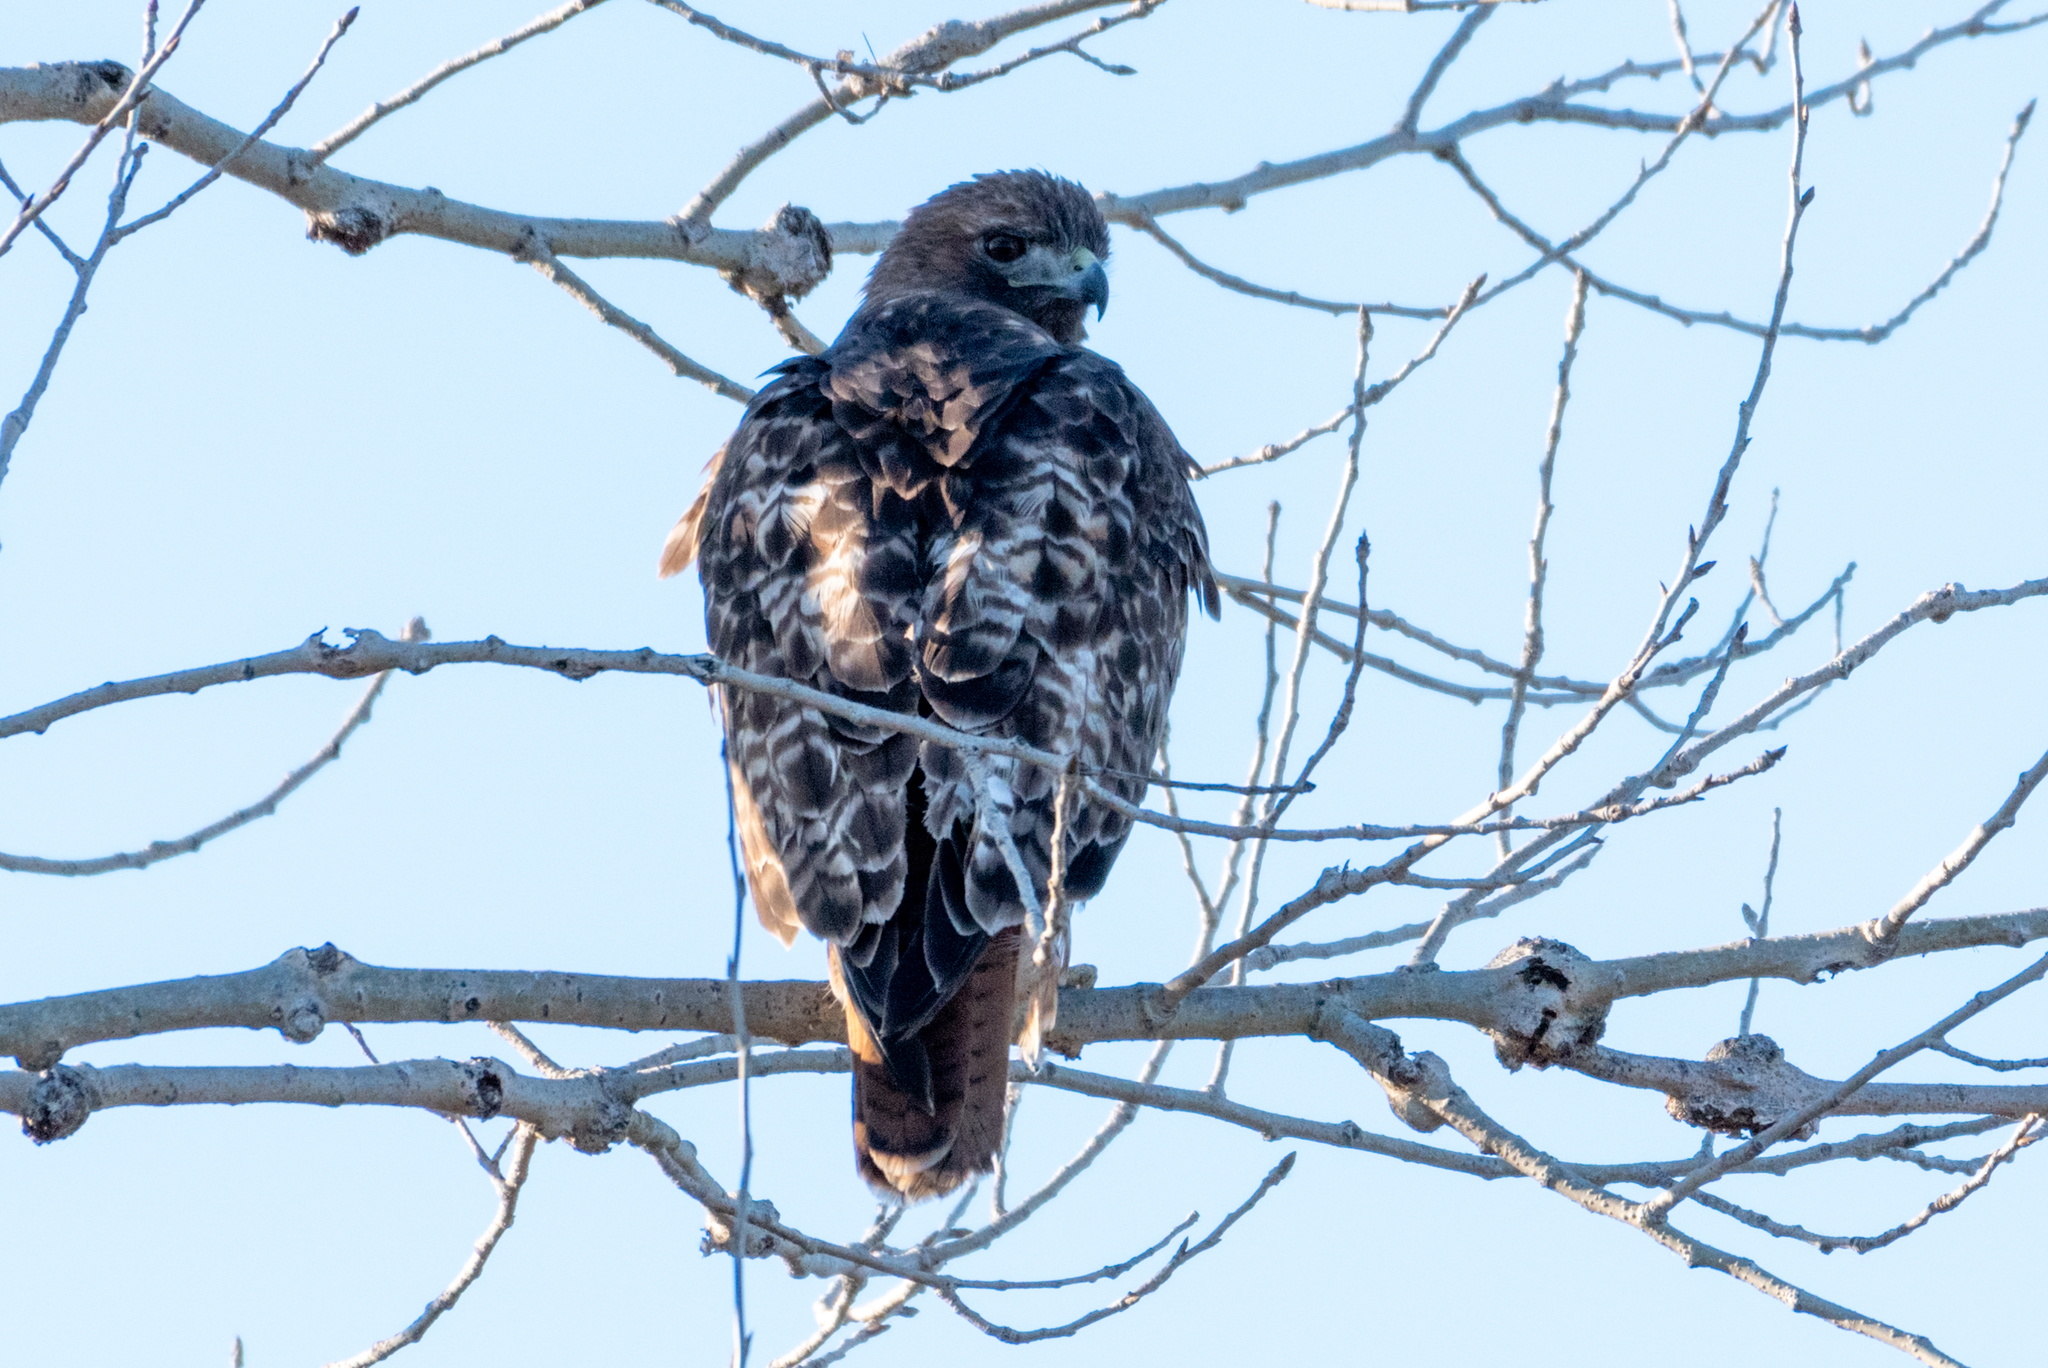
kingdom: Animalia
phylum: Chordata
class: Aves
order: Accipitriformes
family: Accipitridae
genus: Buteo
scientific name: Buteo jamaicensis
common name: Red-tailed hawk
